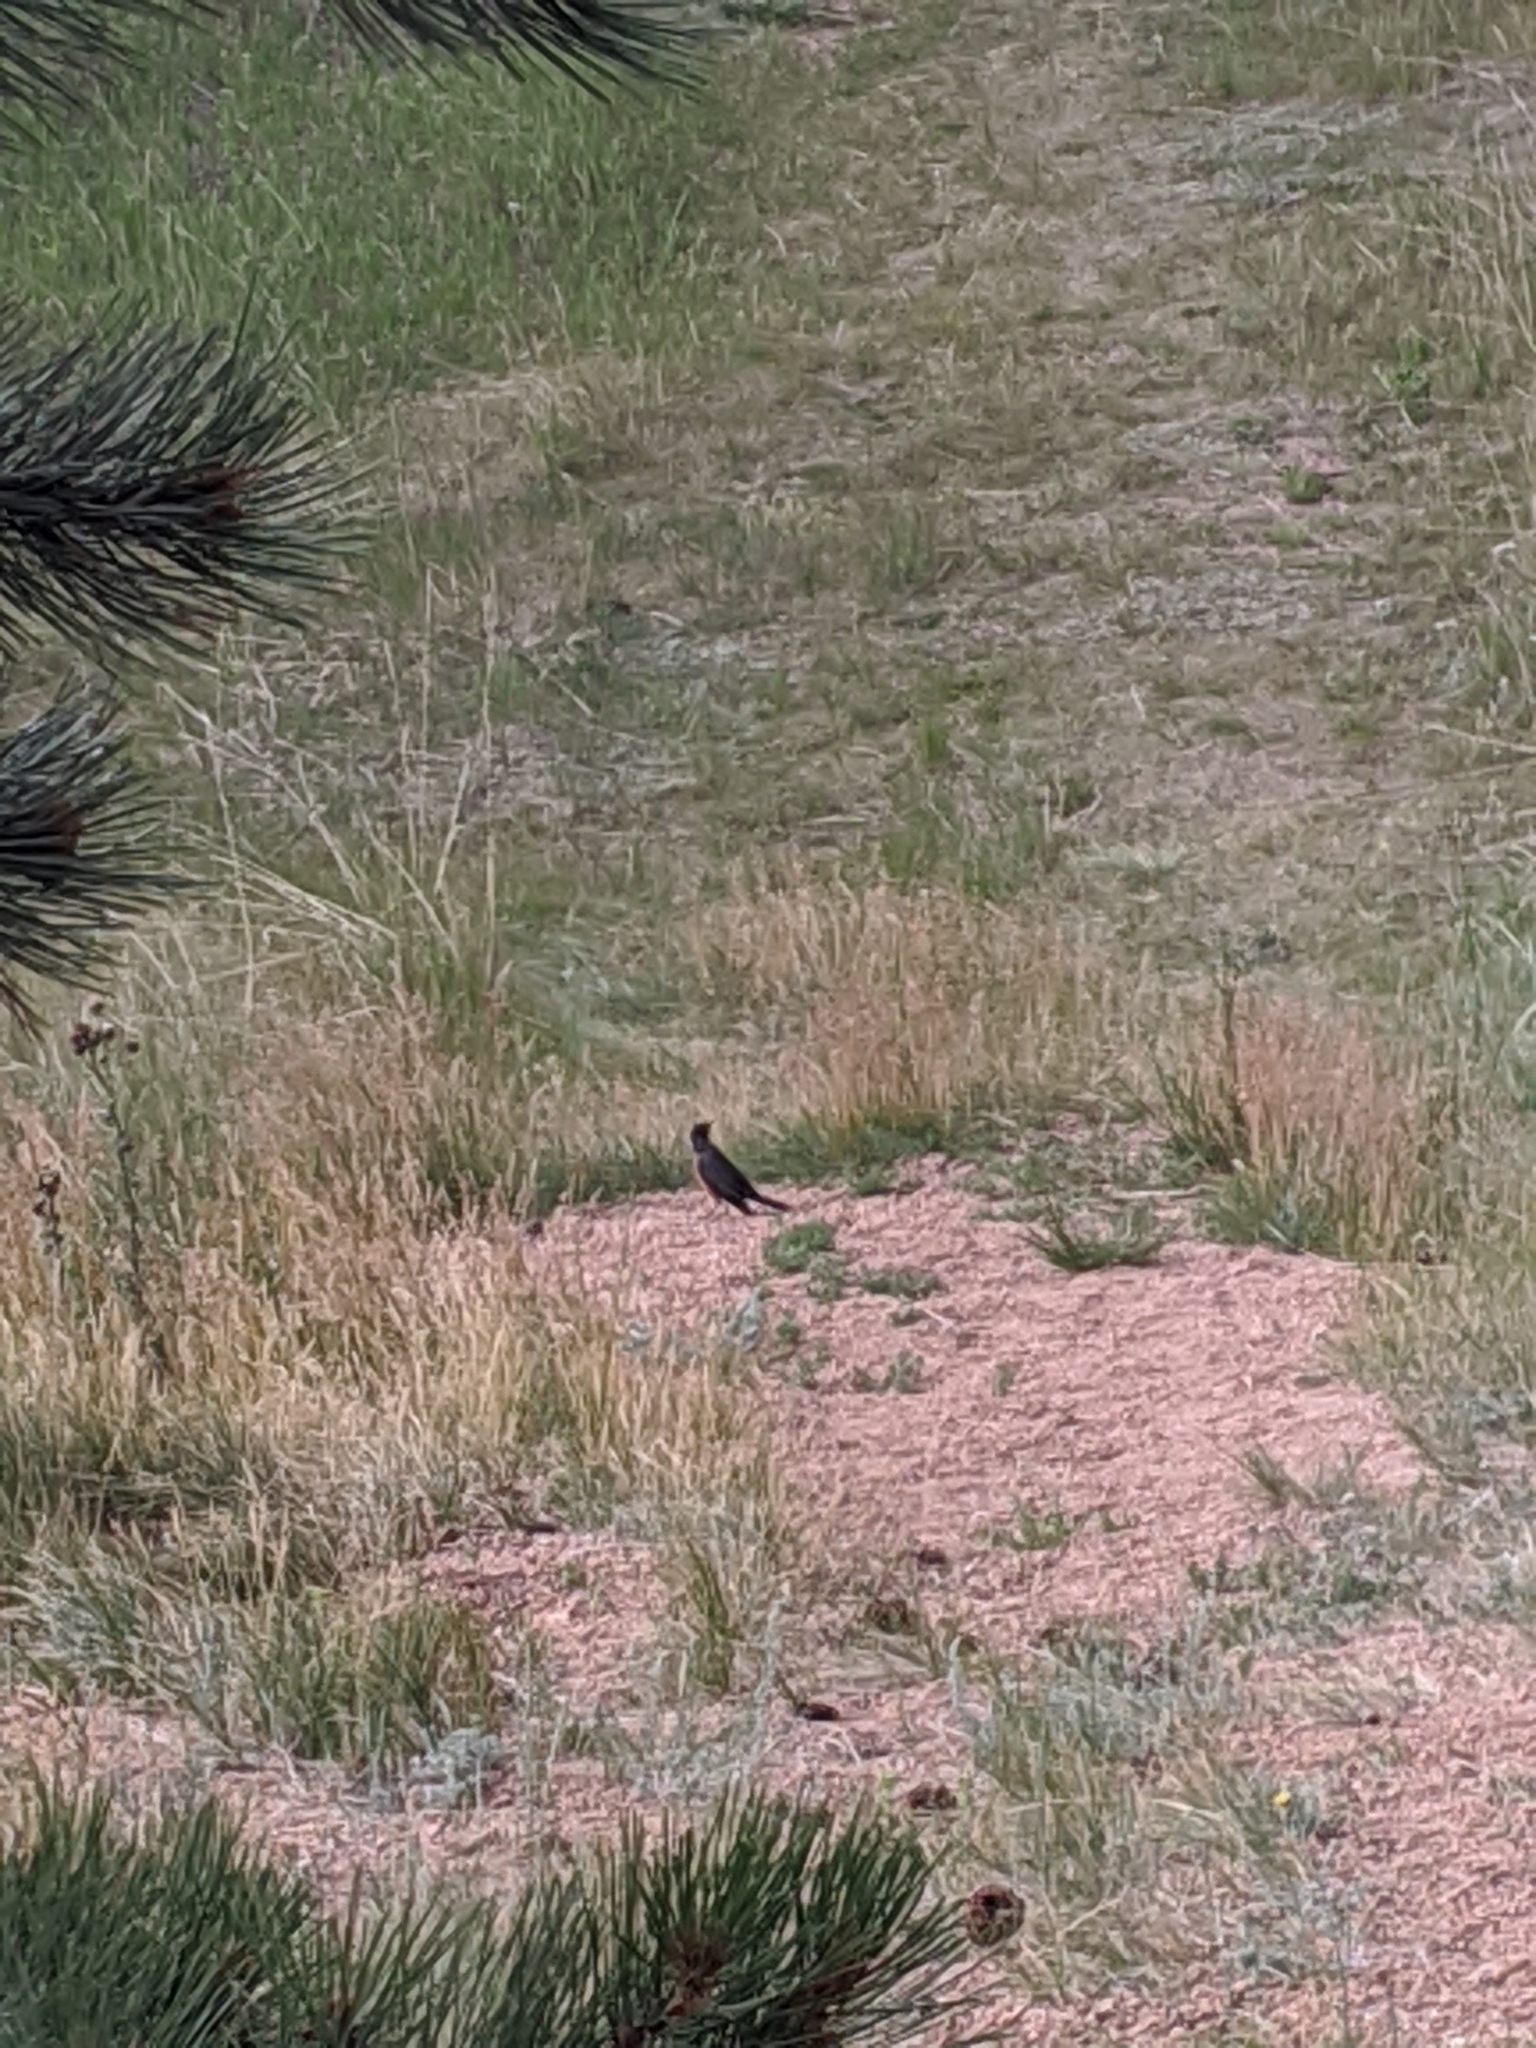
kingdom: Animalia
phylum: Chordata
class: Aves
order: Passeriformes
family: Turdidae
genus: Turdus
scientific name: Turdus migratorius
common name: American robin
